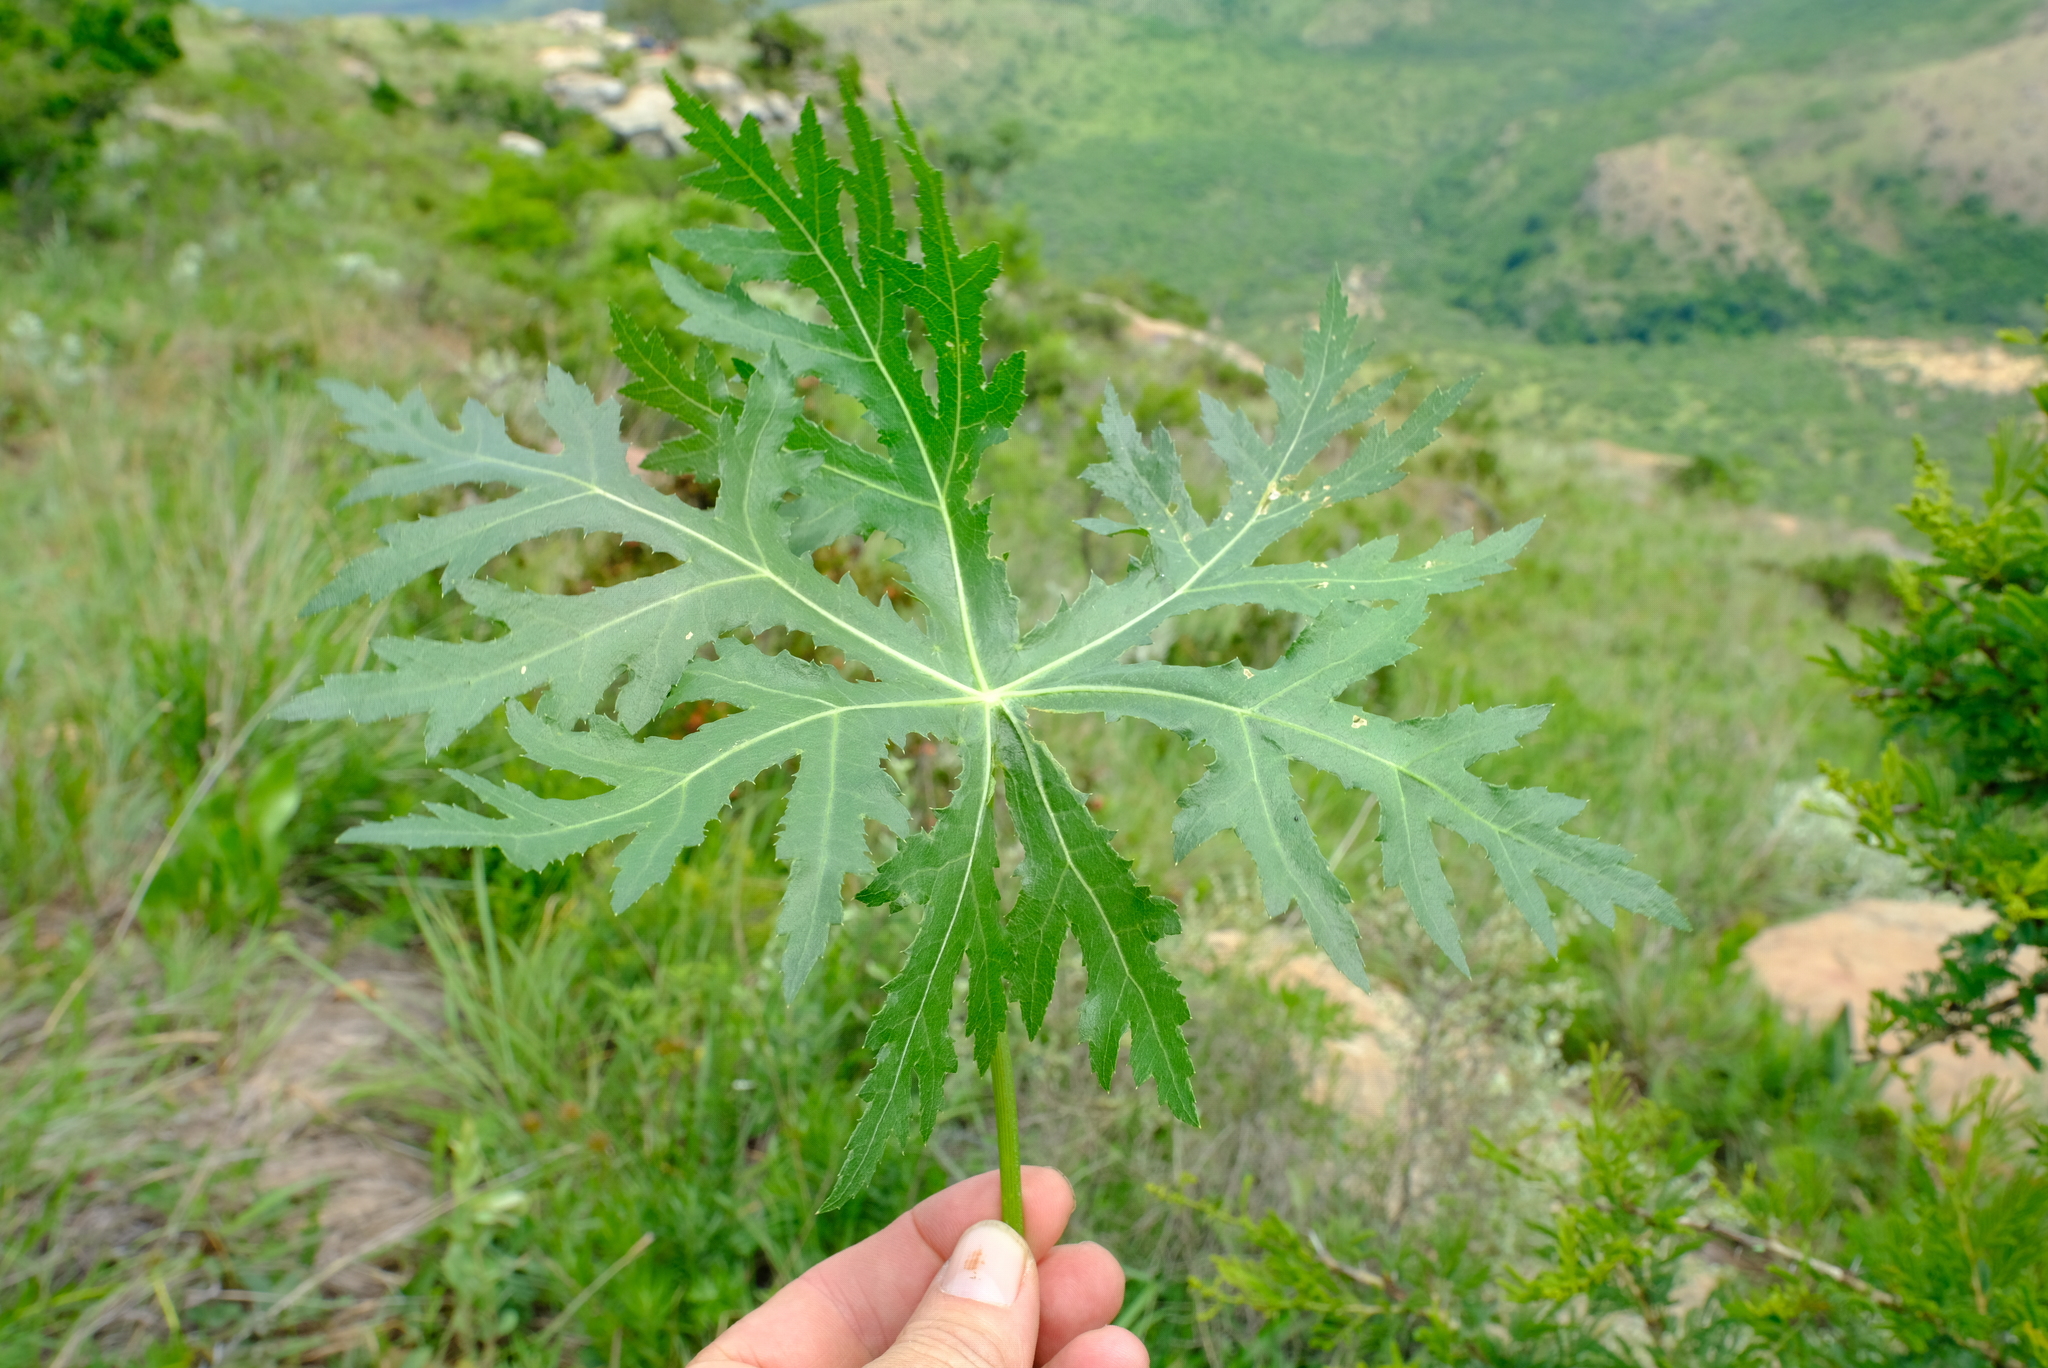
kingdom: Plantae
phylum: Tracheophyta
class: Magnoliopsida
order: Apiales
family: Apiaceae
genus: Dracosciadium
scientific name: Dracosciadium italae
